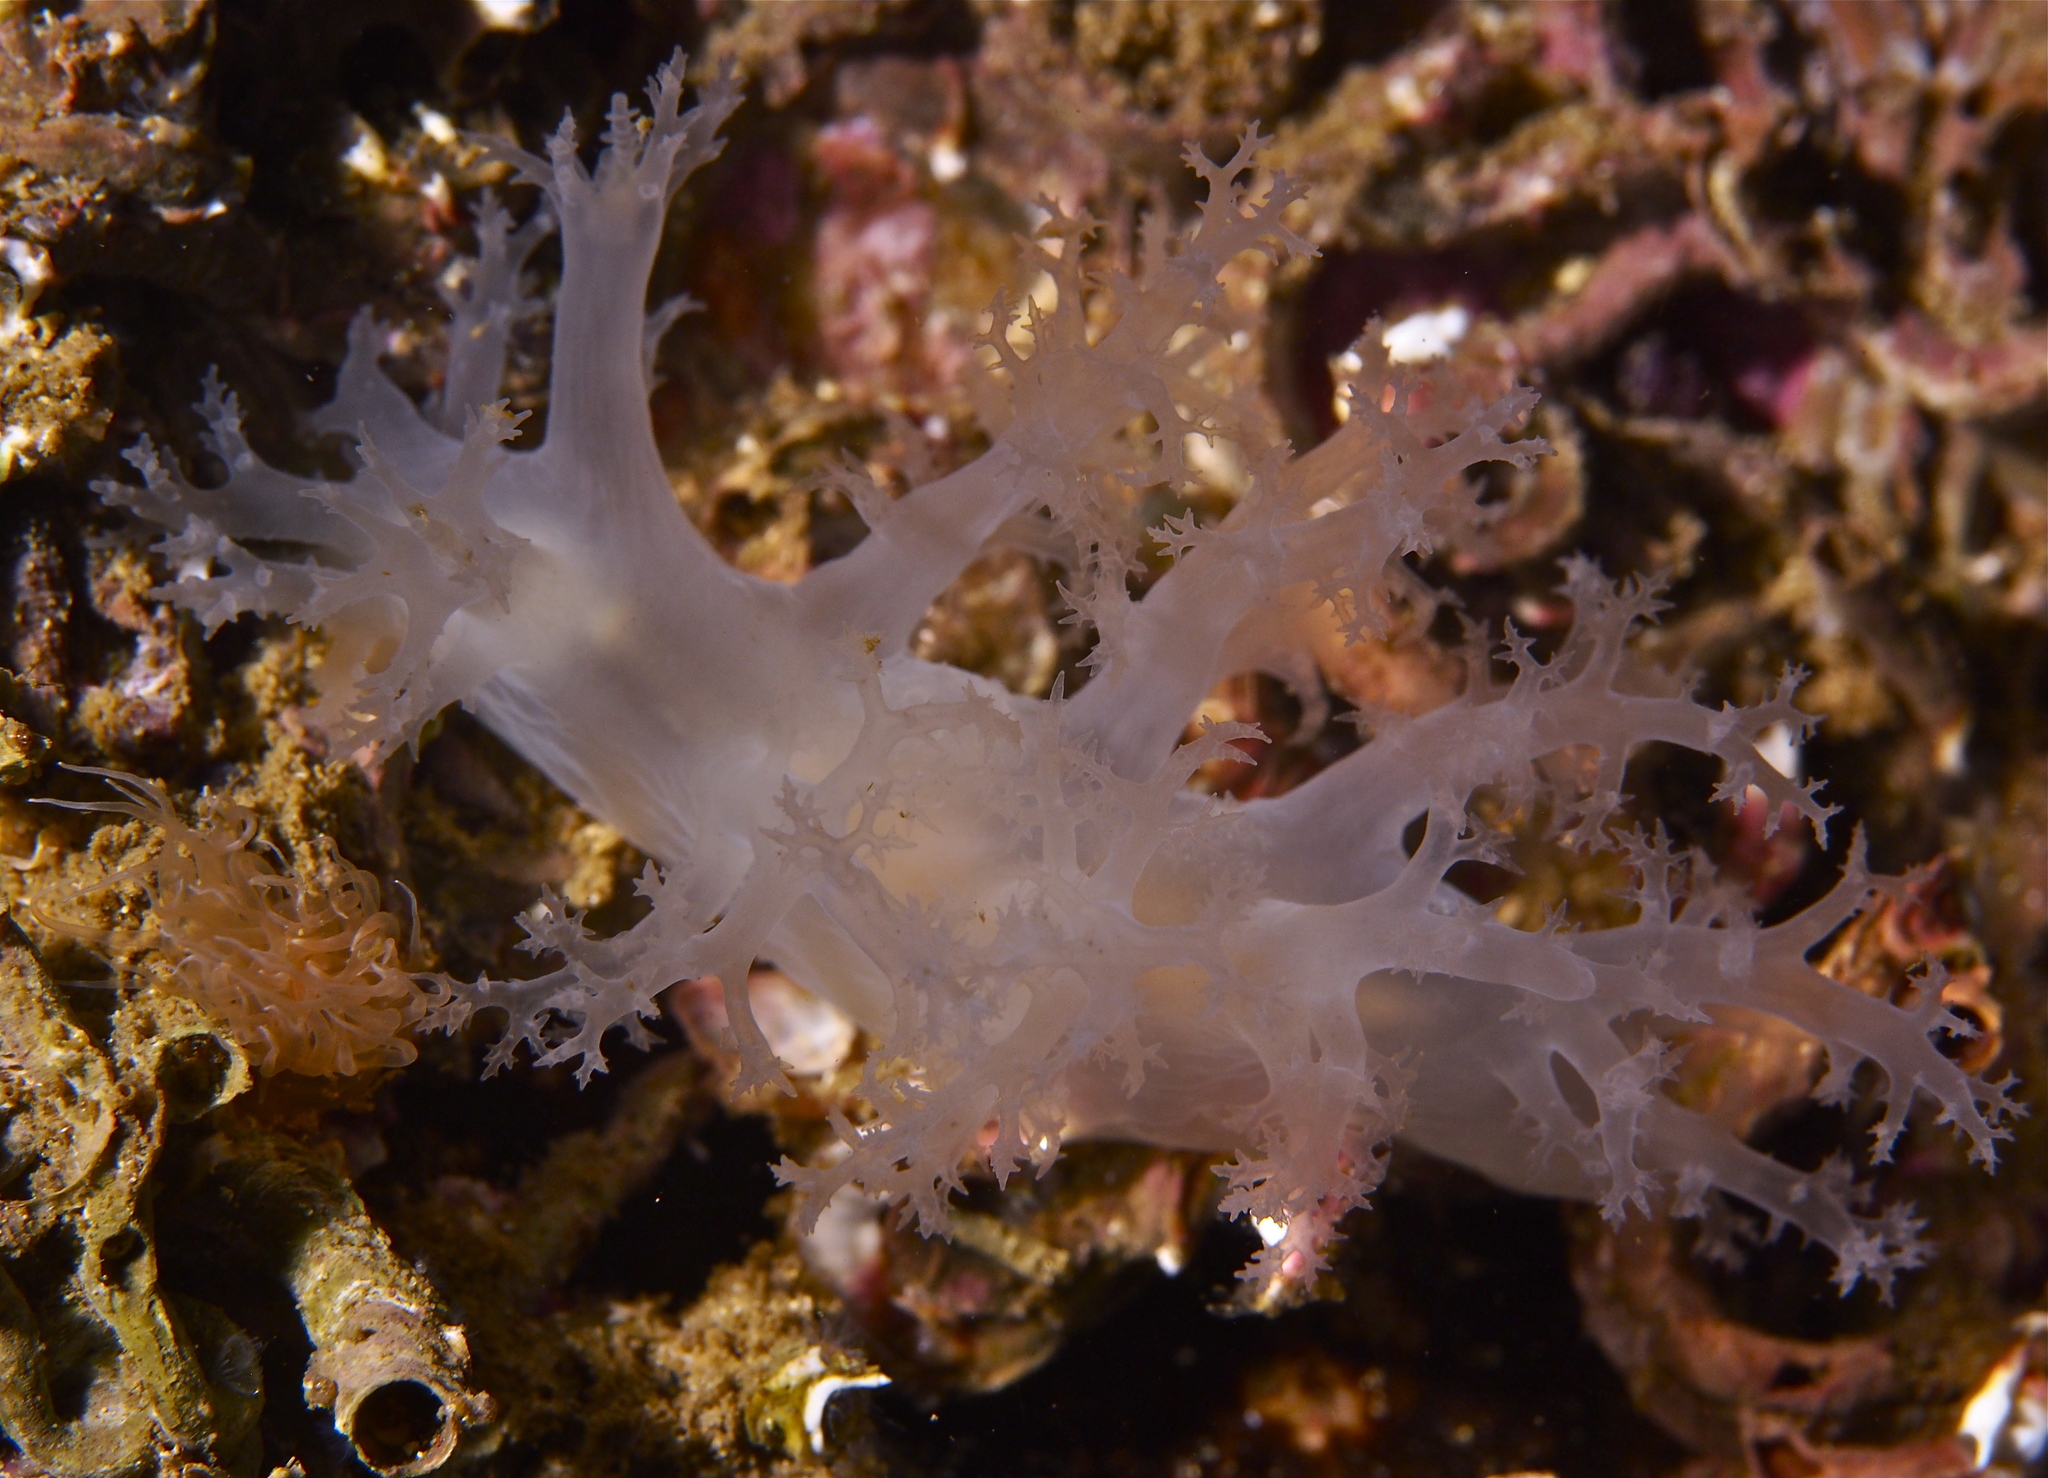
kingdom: Animalia
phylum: Mollusca
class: Gastropoda
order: Nudibranchia
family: Dendronotidae
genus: Dendronotus
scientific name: Dendronotus lacteus
